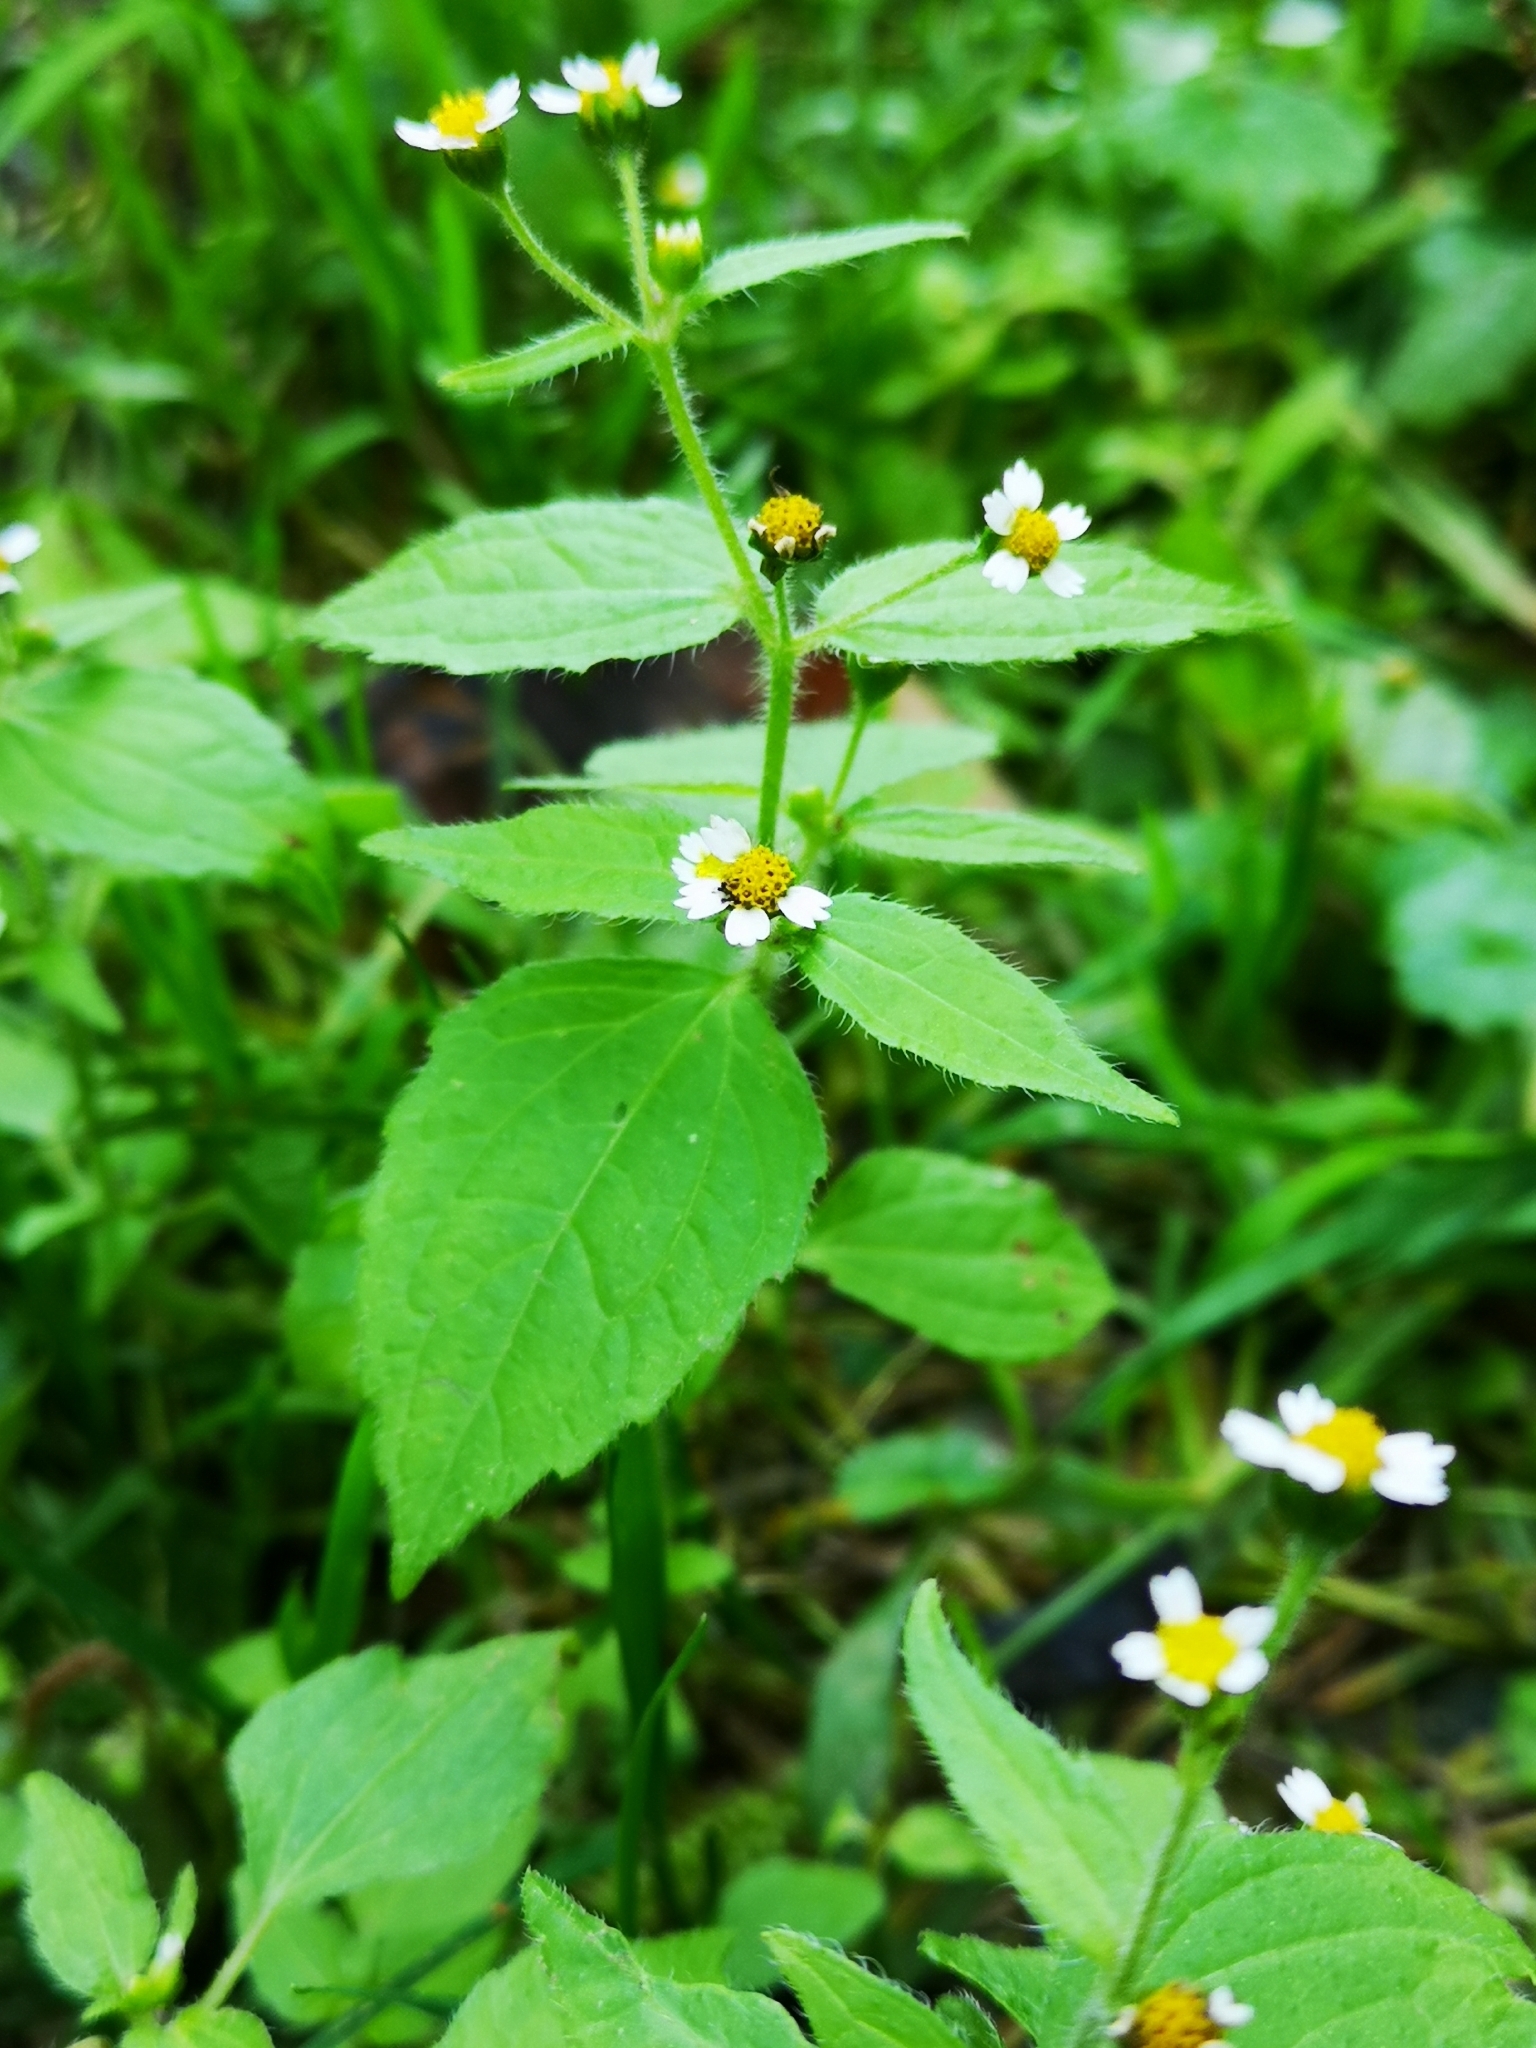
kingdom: Plantae
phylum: Tracheophyta
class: Magnoliopsida
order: Asterales
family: Asteraceae
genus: Galinsoga
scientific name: Galinsoga quadriradiata
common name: Shaggy soldier
